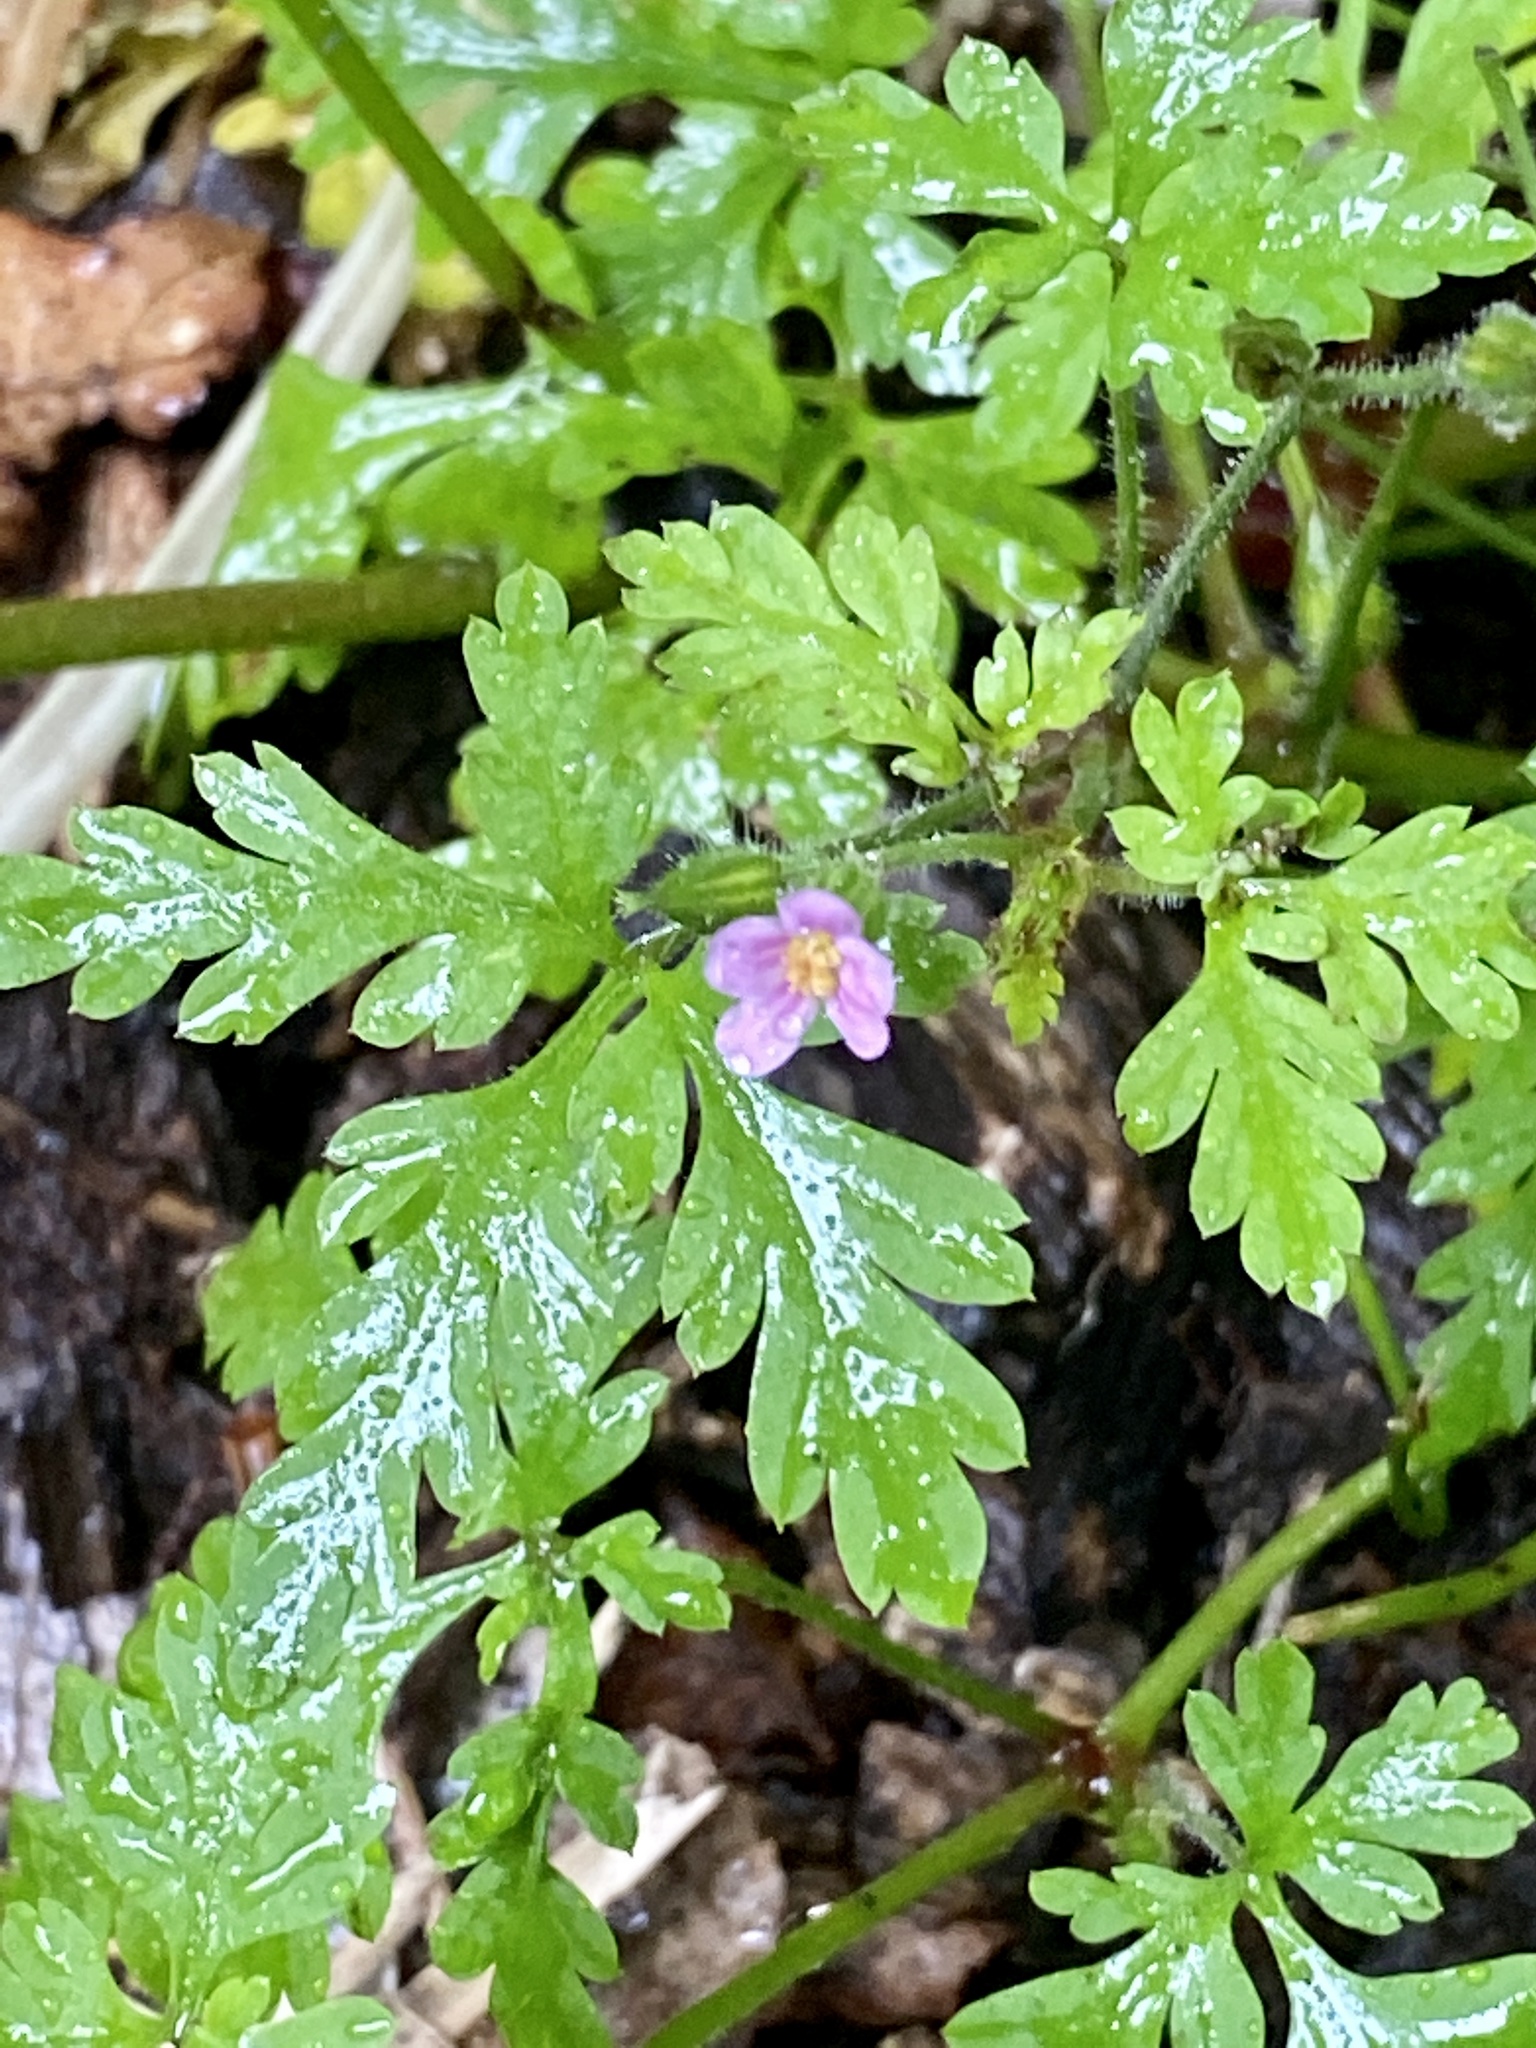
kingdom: Plantae
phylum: Tracheophyta
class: Magnoliopsida
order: Geraniales
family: Geraniaceae
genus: Geranium
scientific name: Geranium robertianum
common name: Herb-robert
